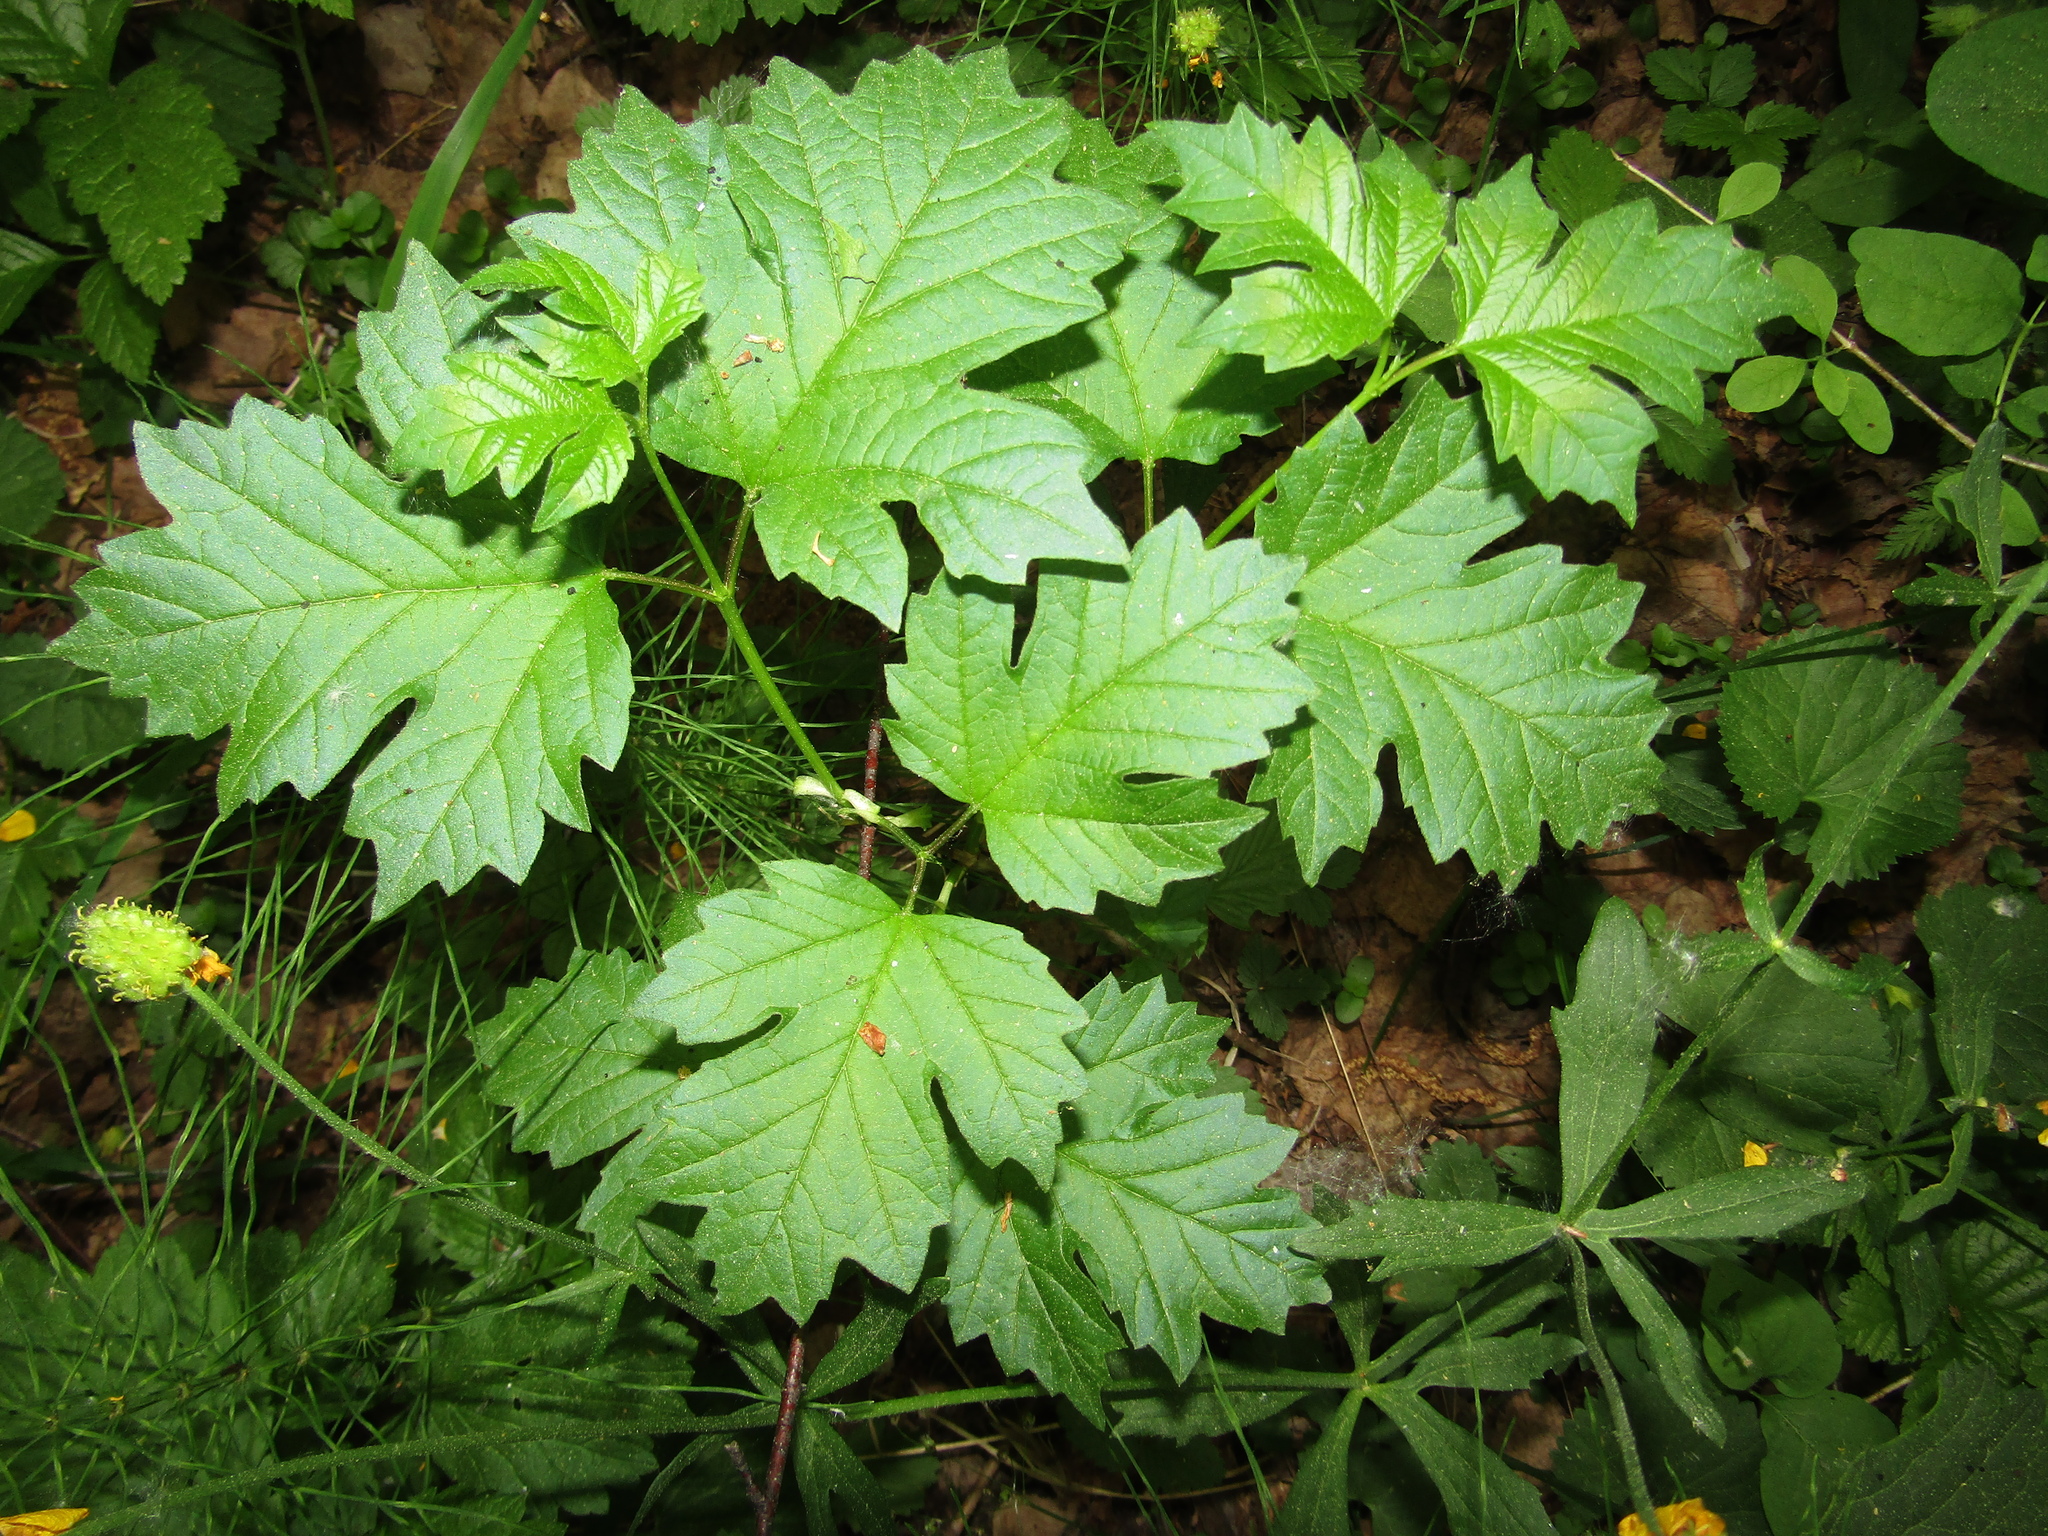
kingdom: Plantae
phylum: Tracheophyta
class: Magnoliopsida
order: Dipsacales
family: Viburnaceae
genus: Viburnum
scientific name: Viburnum opulus
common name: Guelder-rose
